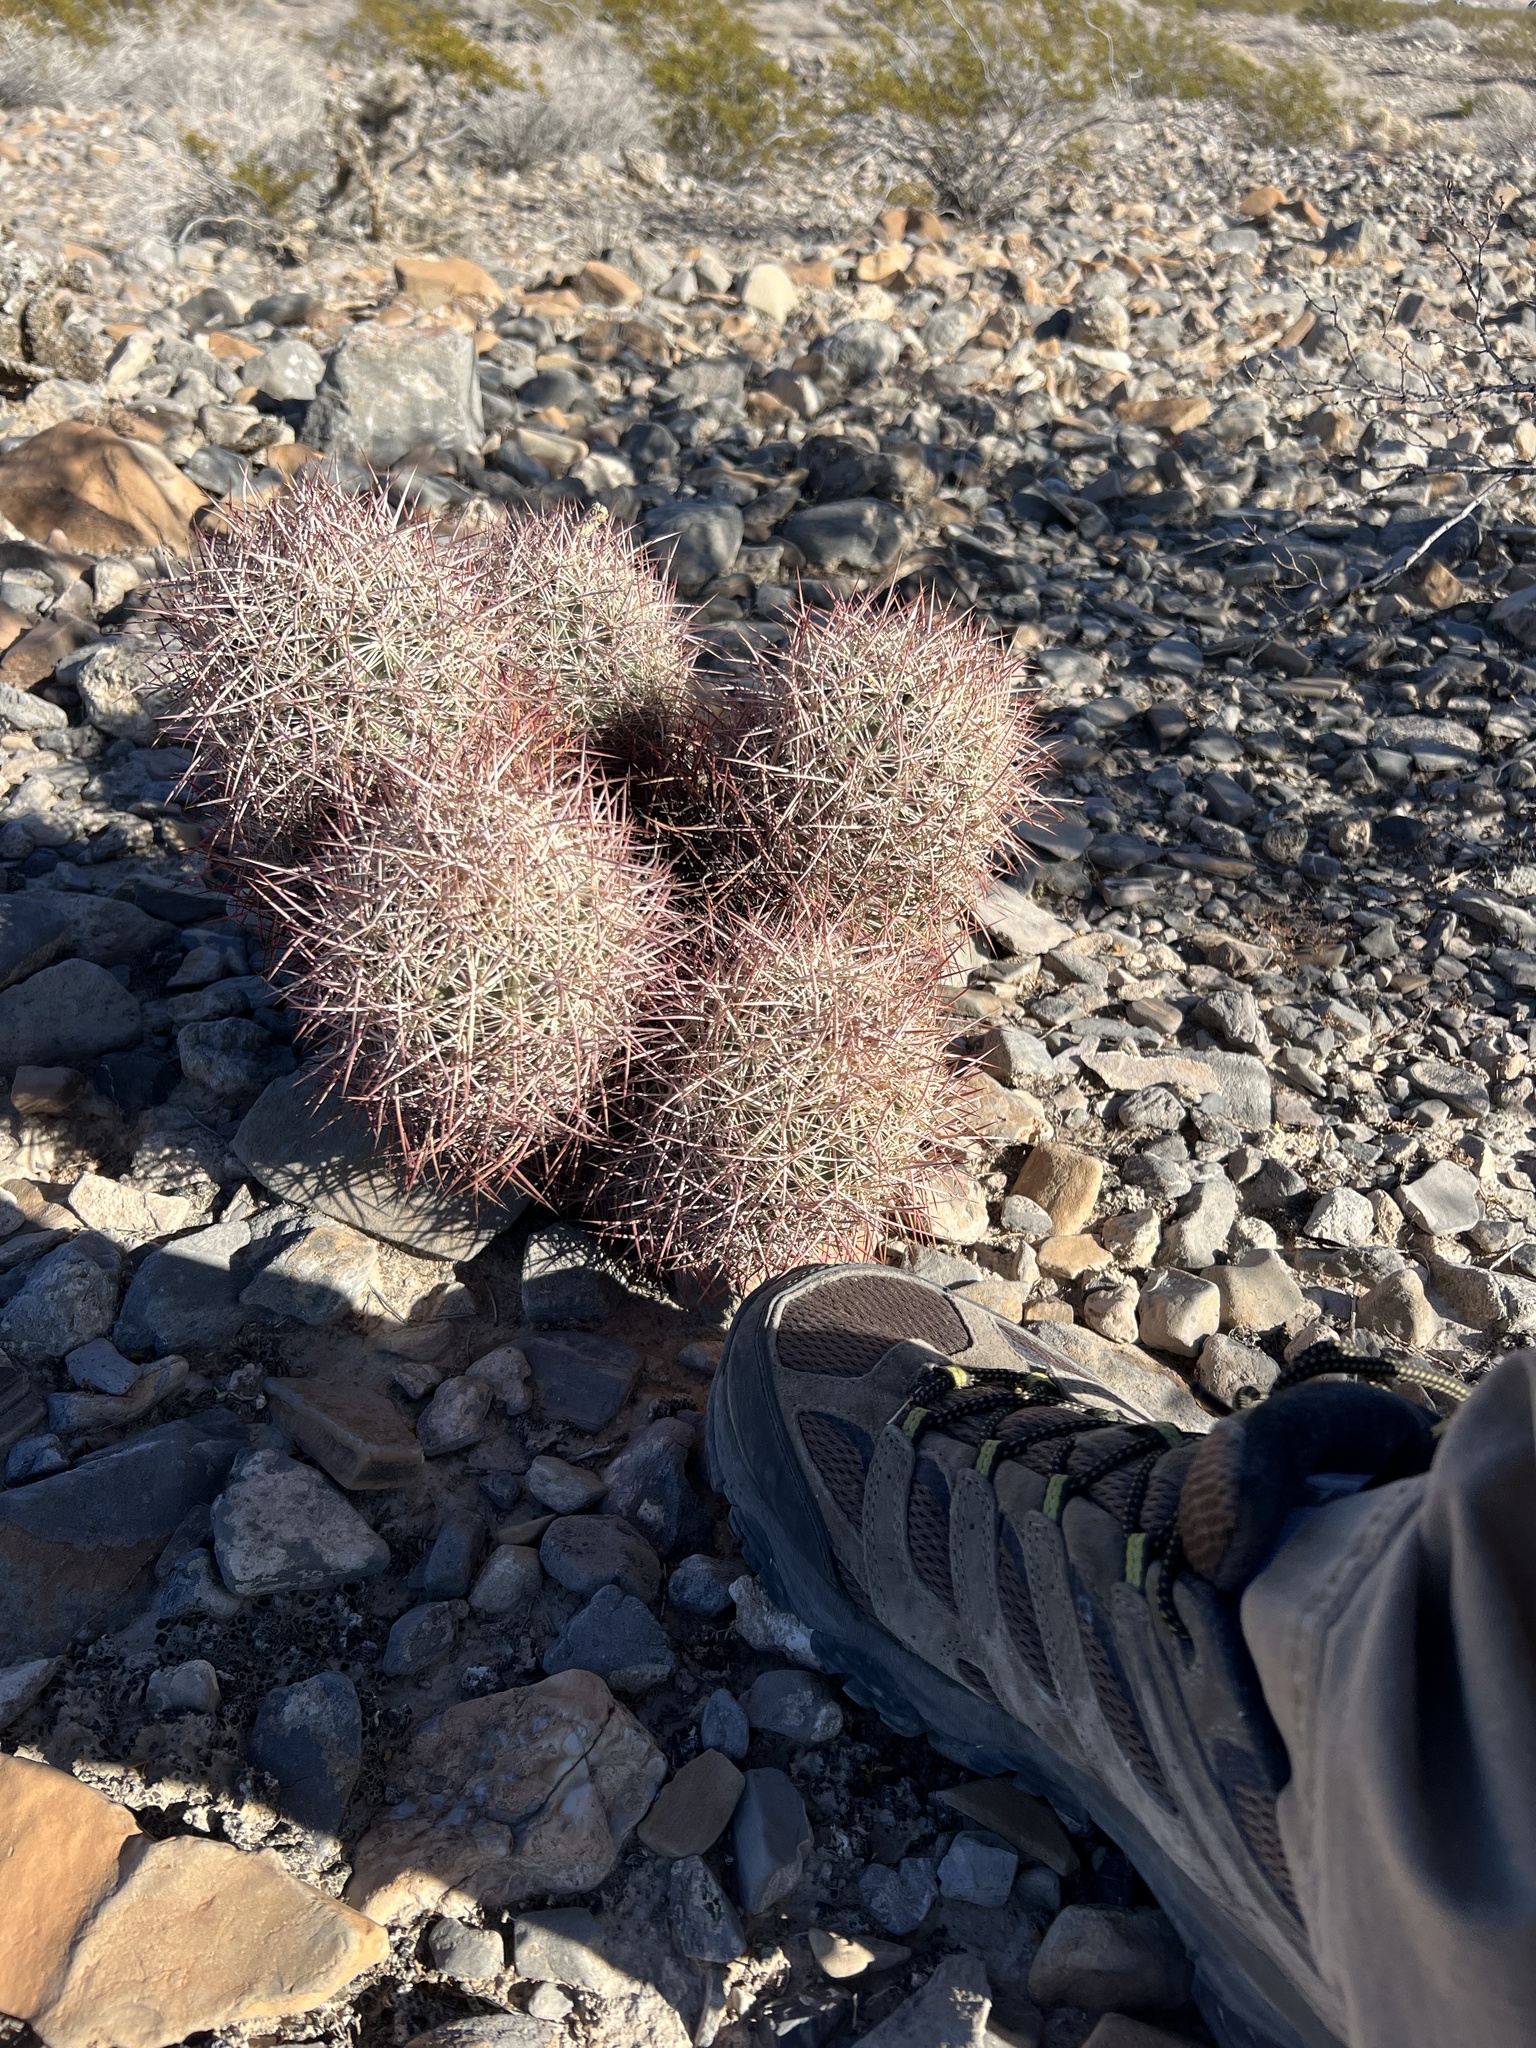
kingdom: Plantae
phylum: Tracheophyta
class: Magnoliopsida
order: Caryophyllales
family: Cactaceae
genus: Sclerocactus
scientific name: Sclerocactus johnsonii
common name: Eight-spine fishhook cactus
